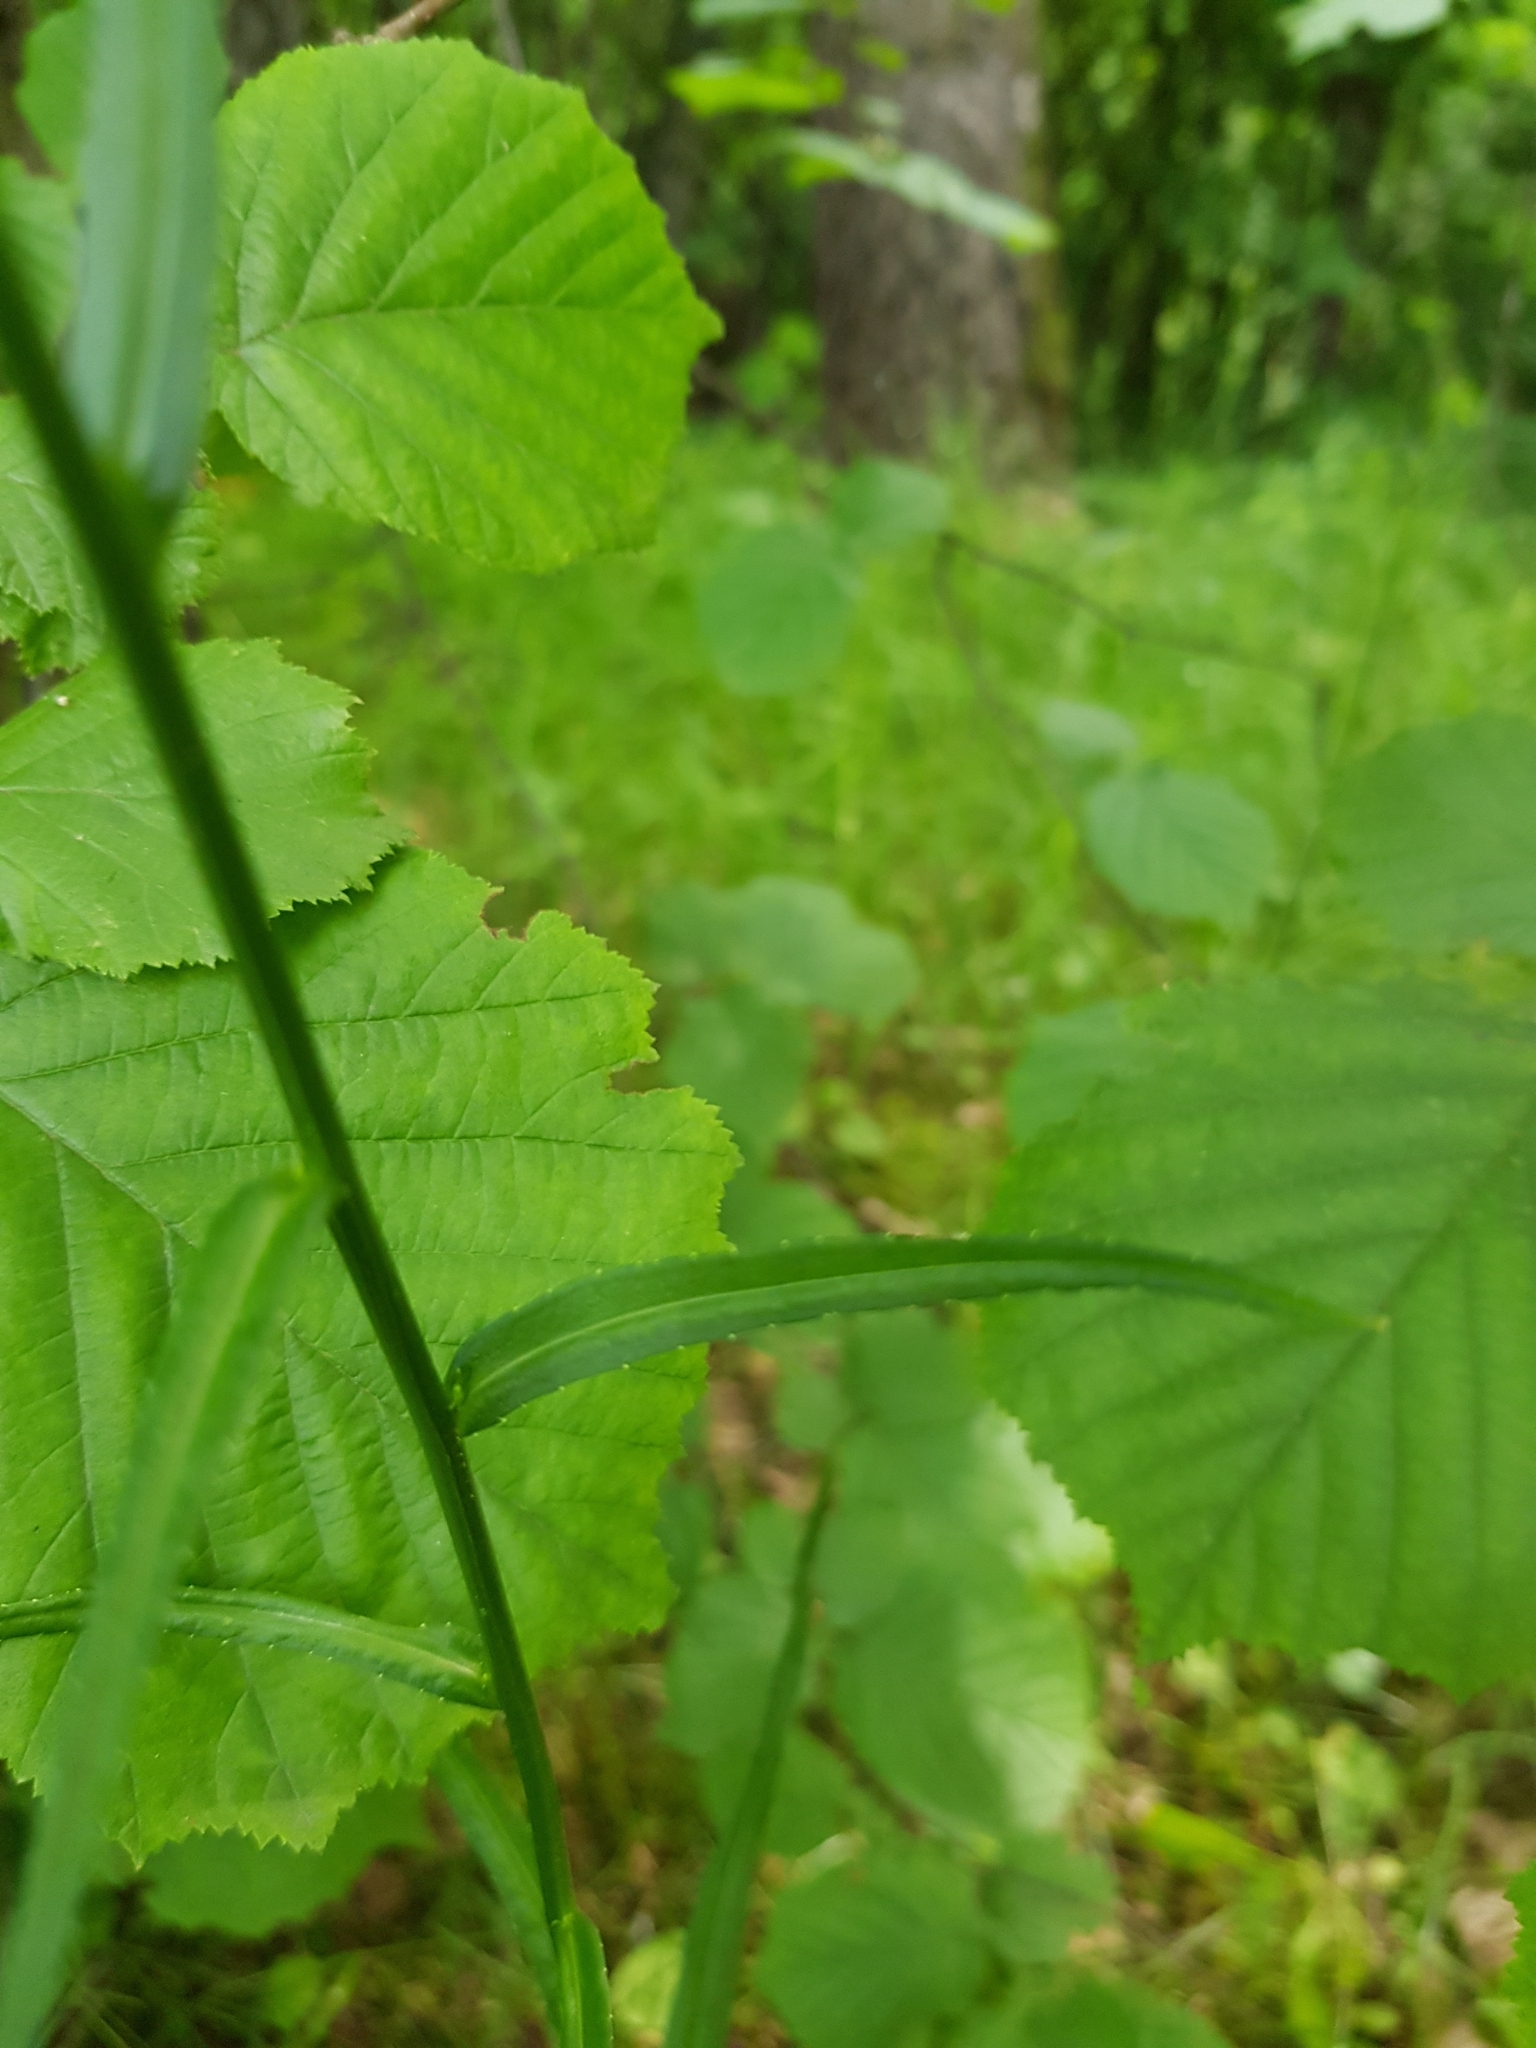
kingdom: Plantae
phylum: Tracheophyta
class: Magnoliopsida
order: Asterales
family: Campanulaceae
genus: Campanula
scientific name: Campanula persicifolia
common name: Peach-leaved bellflower
